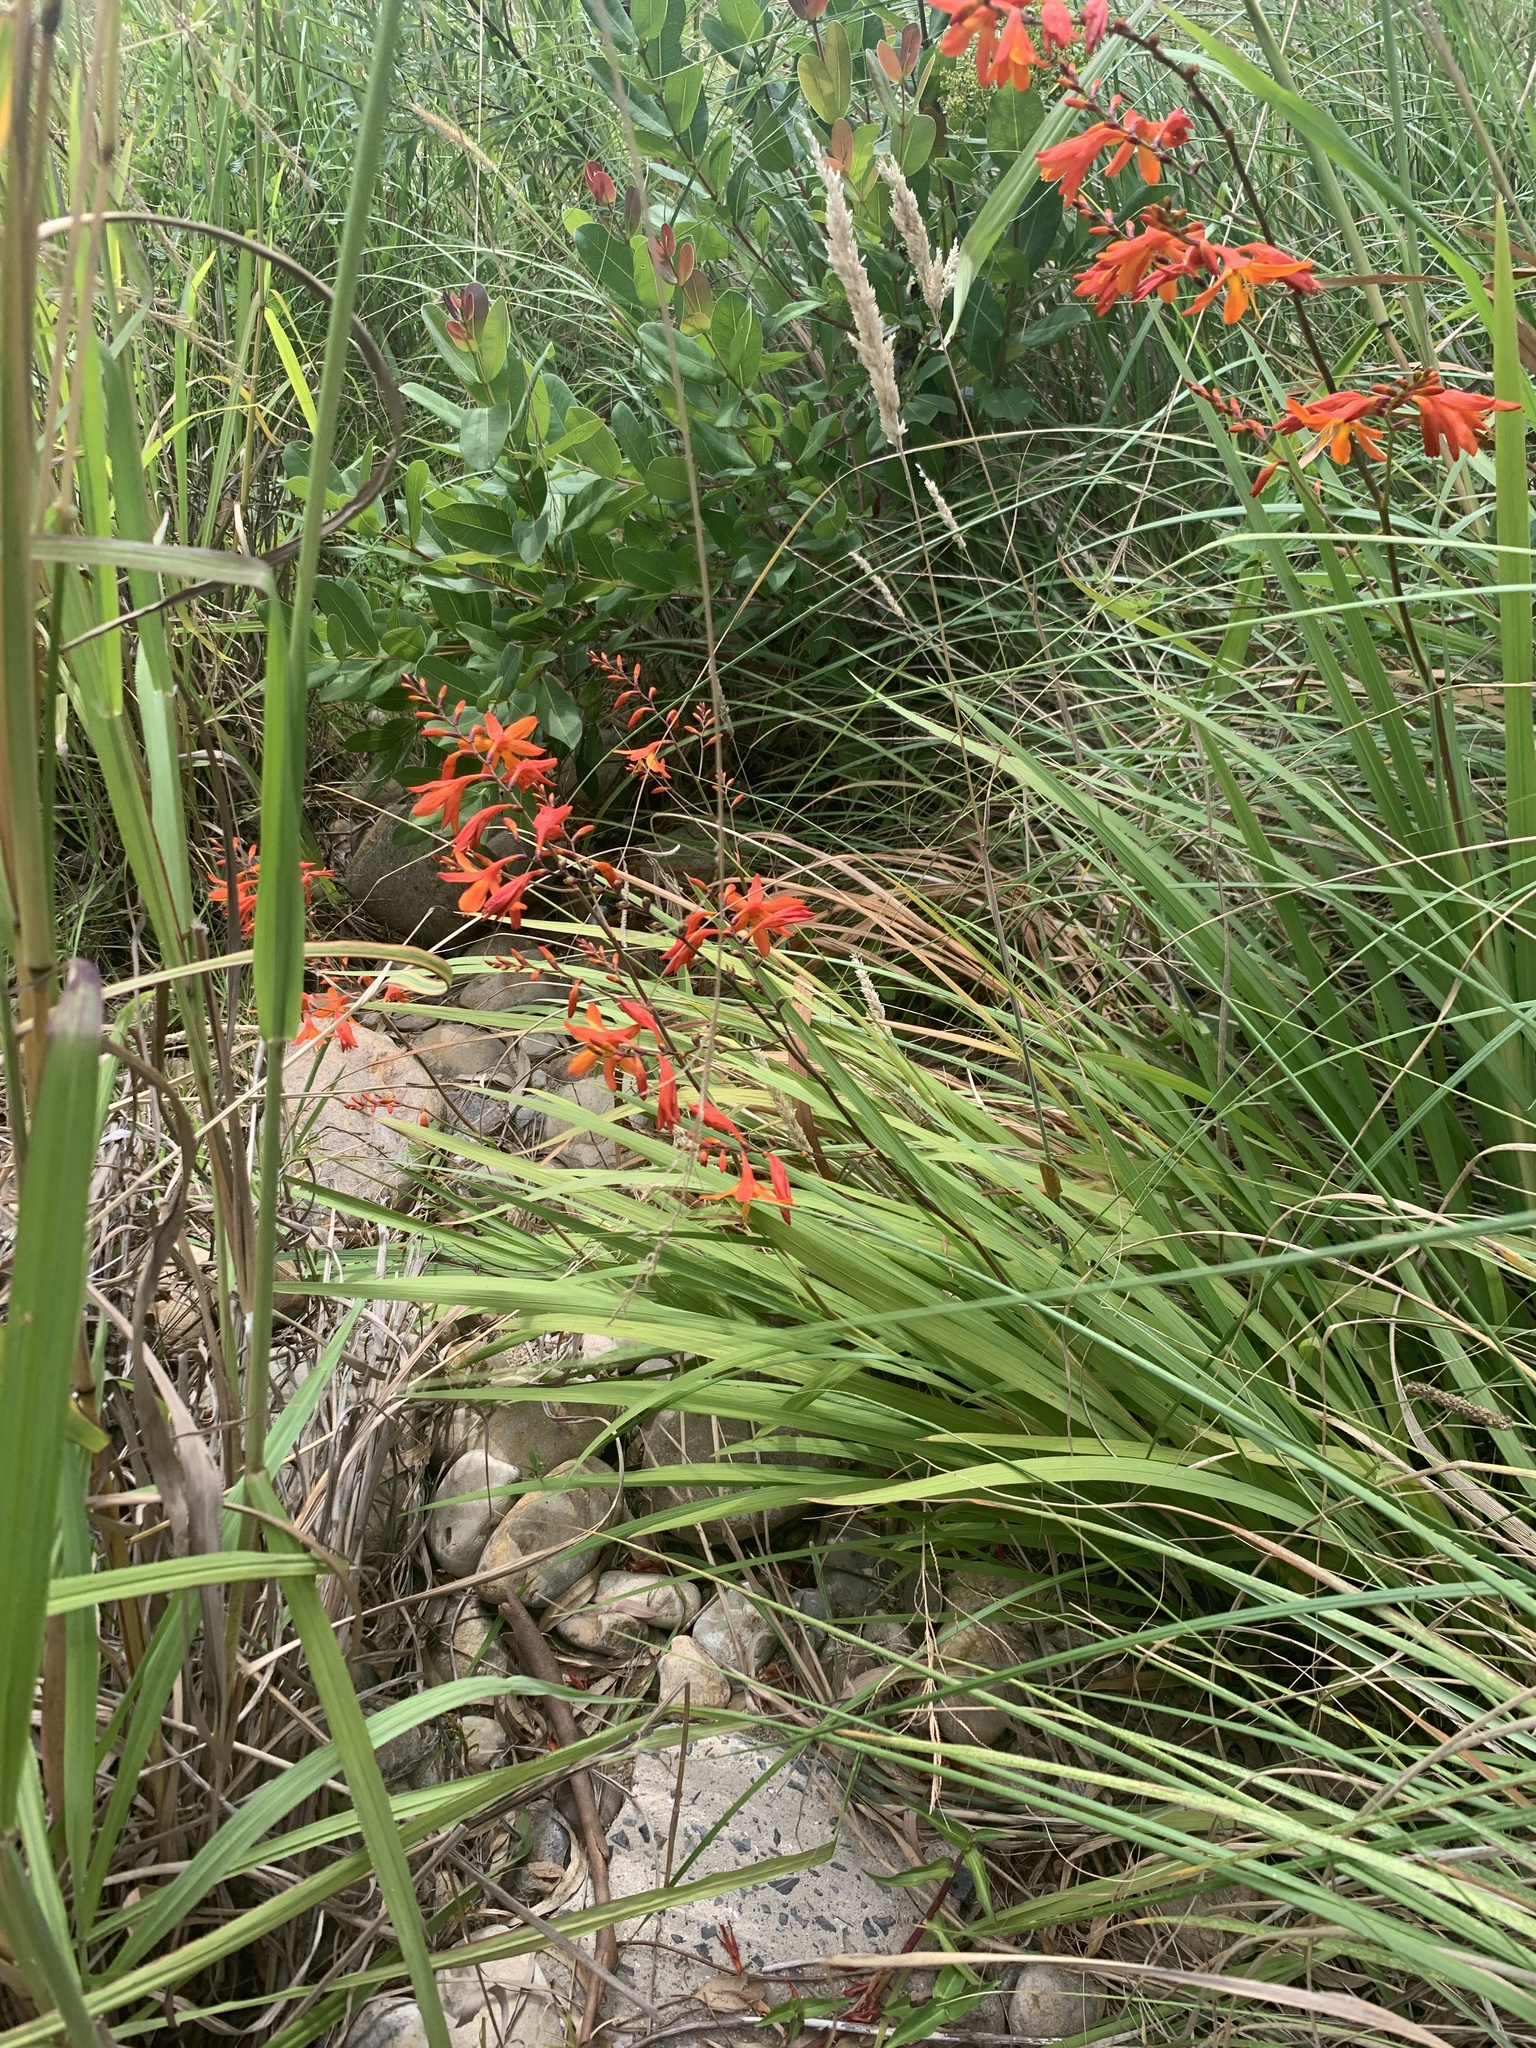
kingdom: Plantae
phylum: Tracheophyta
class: Liliopsida
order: Asparagales
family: Iridaceae
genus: Crocosmia
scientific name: Crocosmia crocosmiiflora
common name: Montbretia
